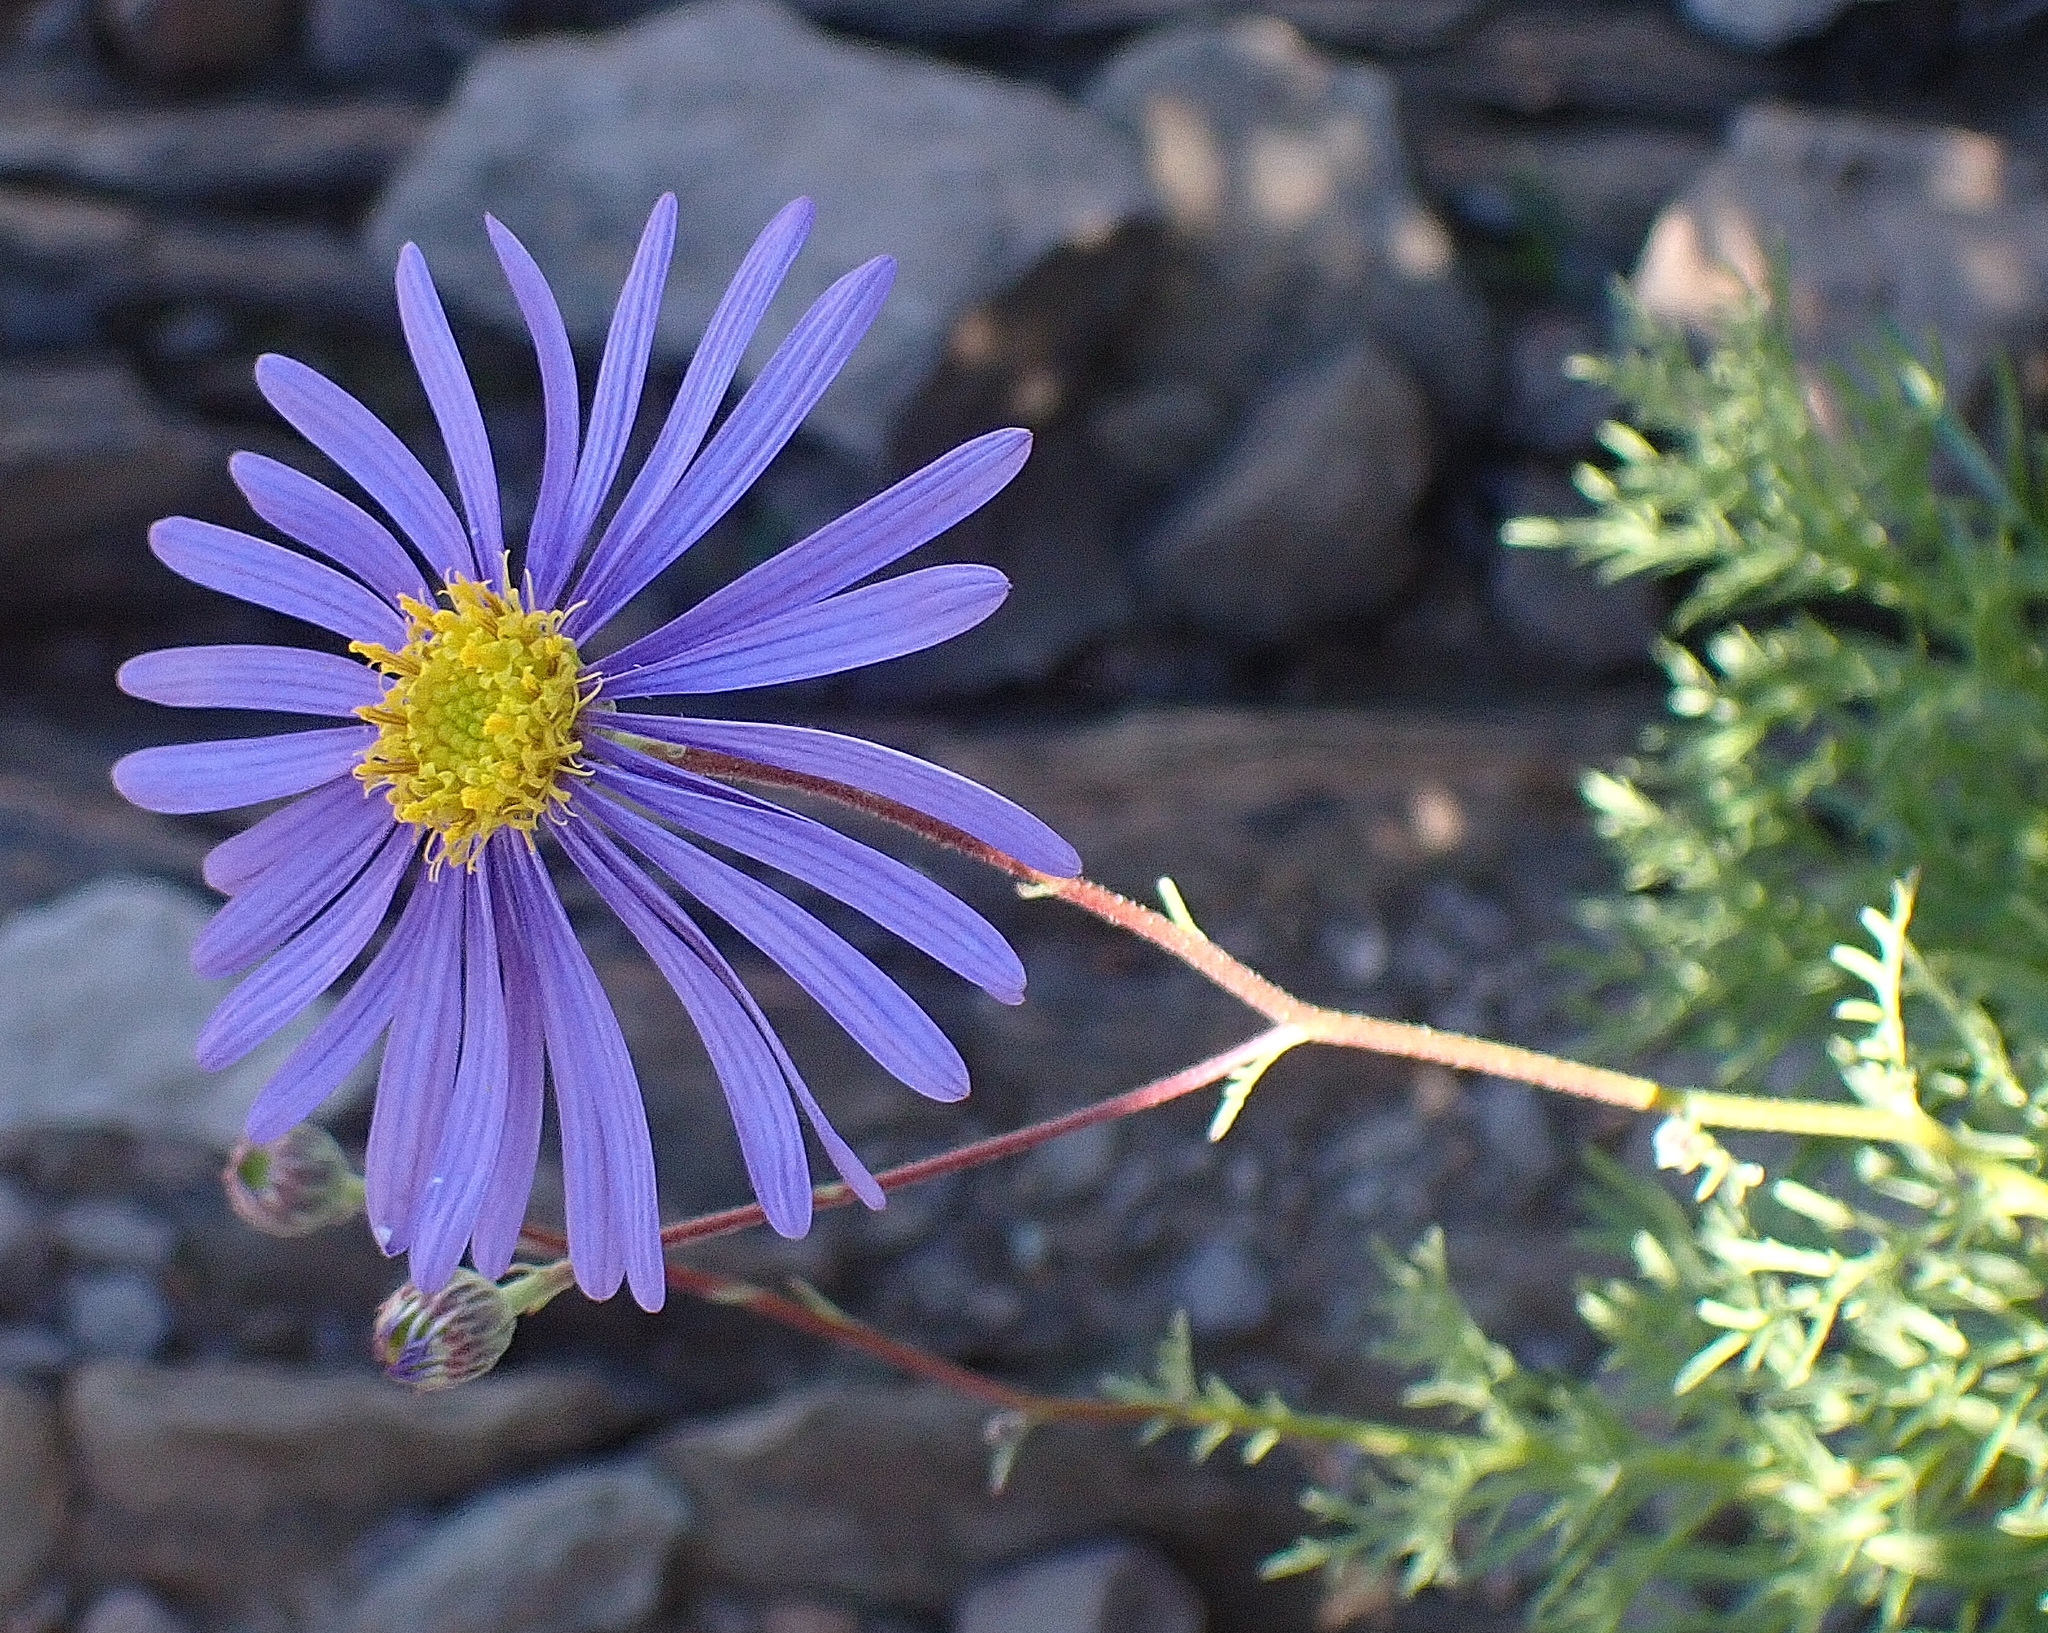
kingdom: Plantae
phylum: Tracheophyta
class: Magnoliopsida
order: Asterales
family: Asteraceae
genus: Garuleum
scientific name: Garuleum bipinnatum
